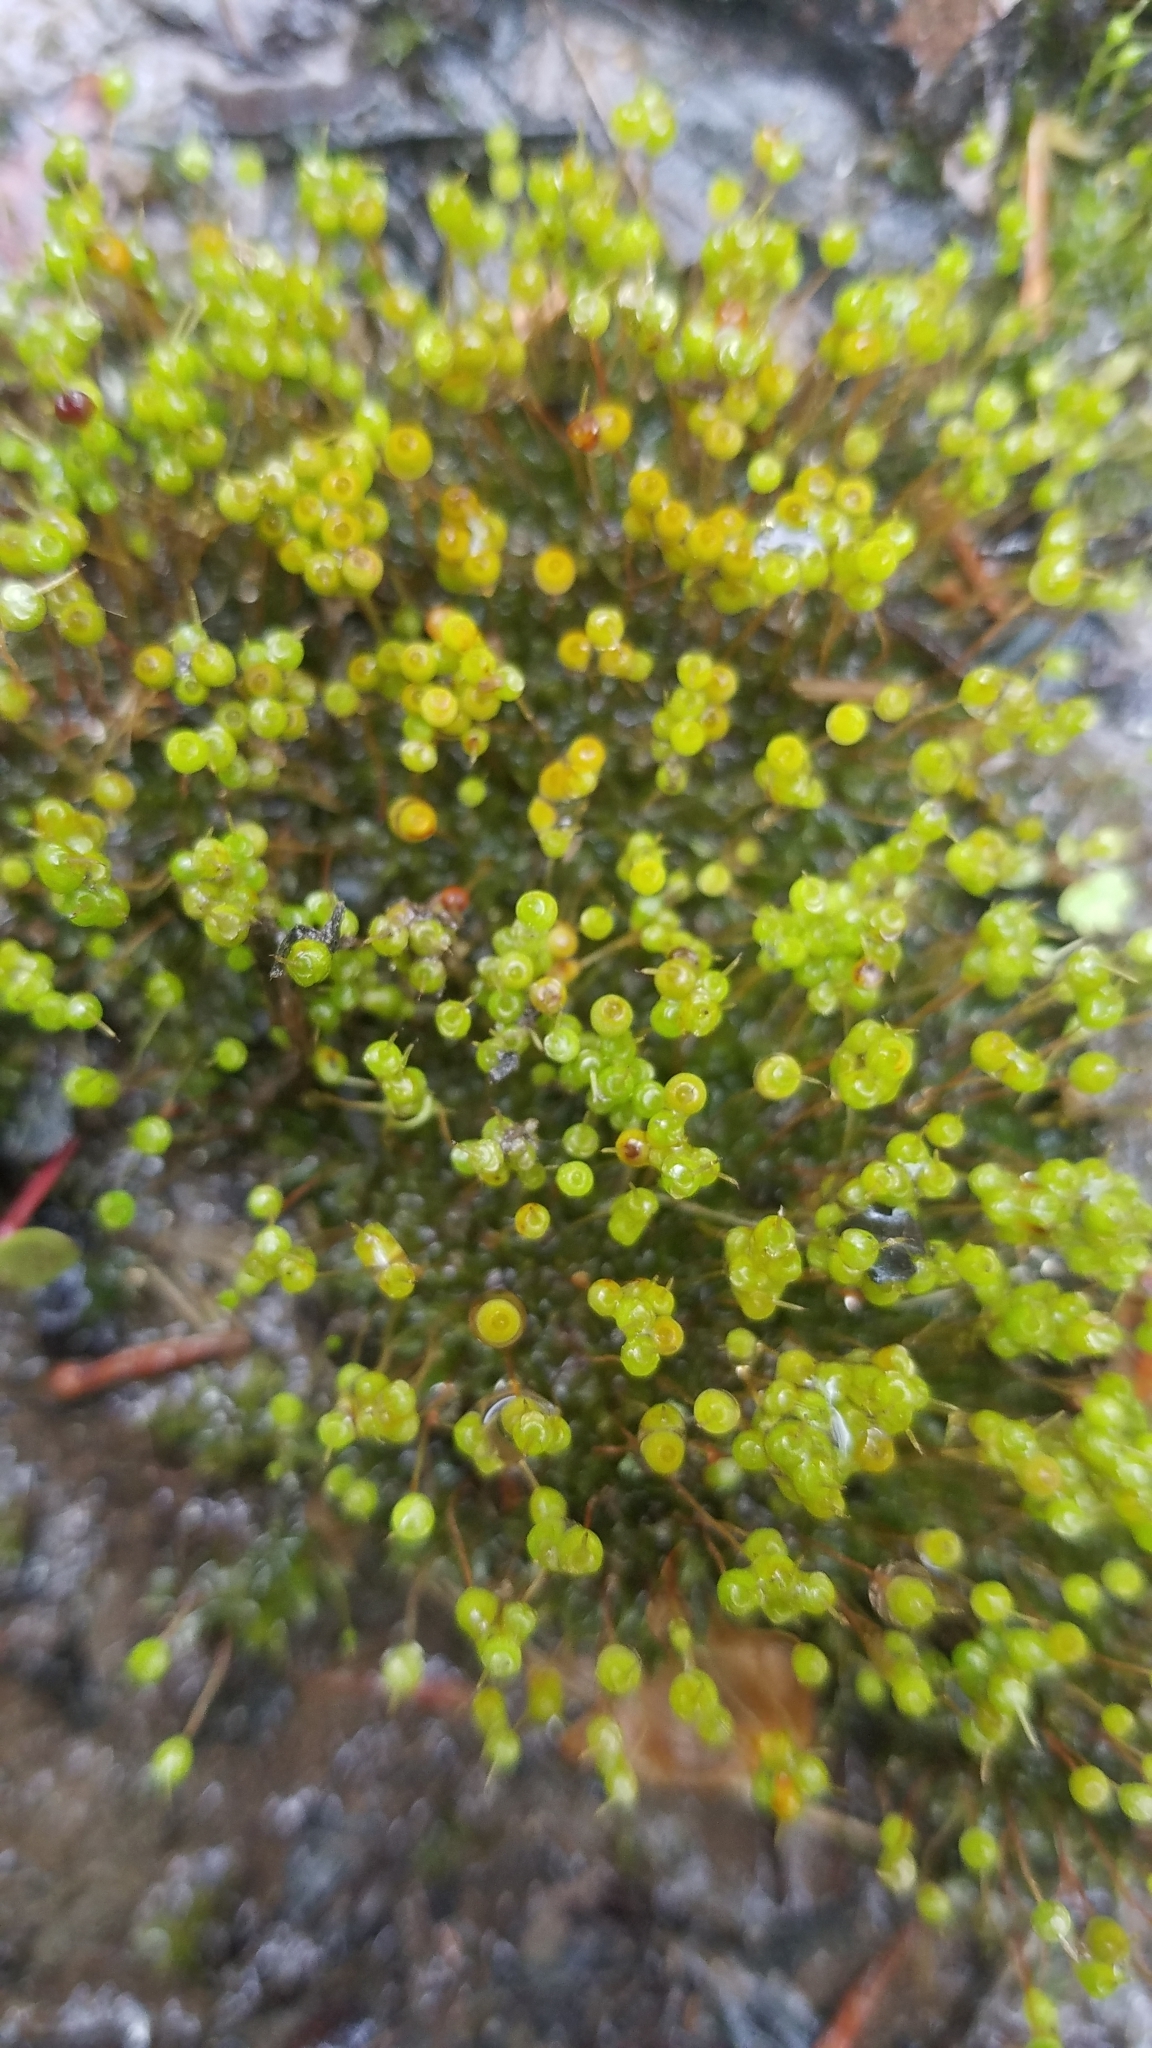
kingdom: Plantae
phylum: Bryophyta
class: Bryopsida
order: Funariales
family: Funariaceae
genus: Physcomitrium
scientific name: Physcomitrium pyriforme
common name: Common bladder-moss
